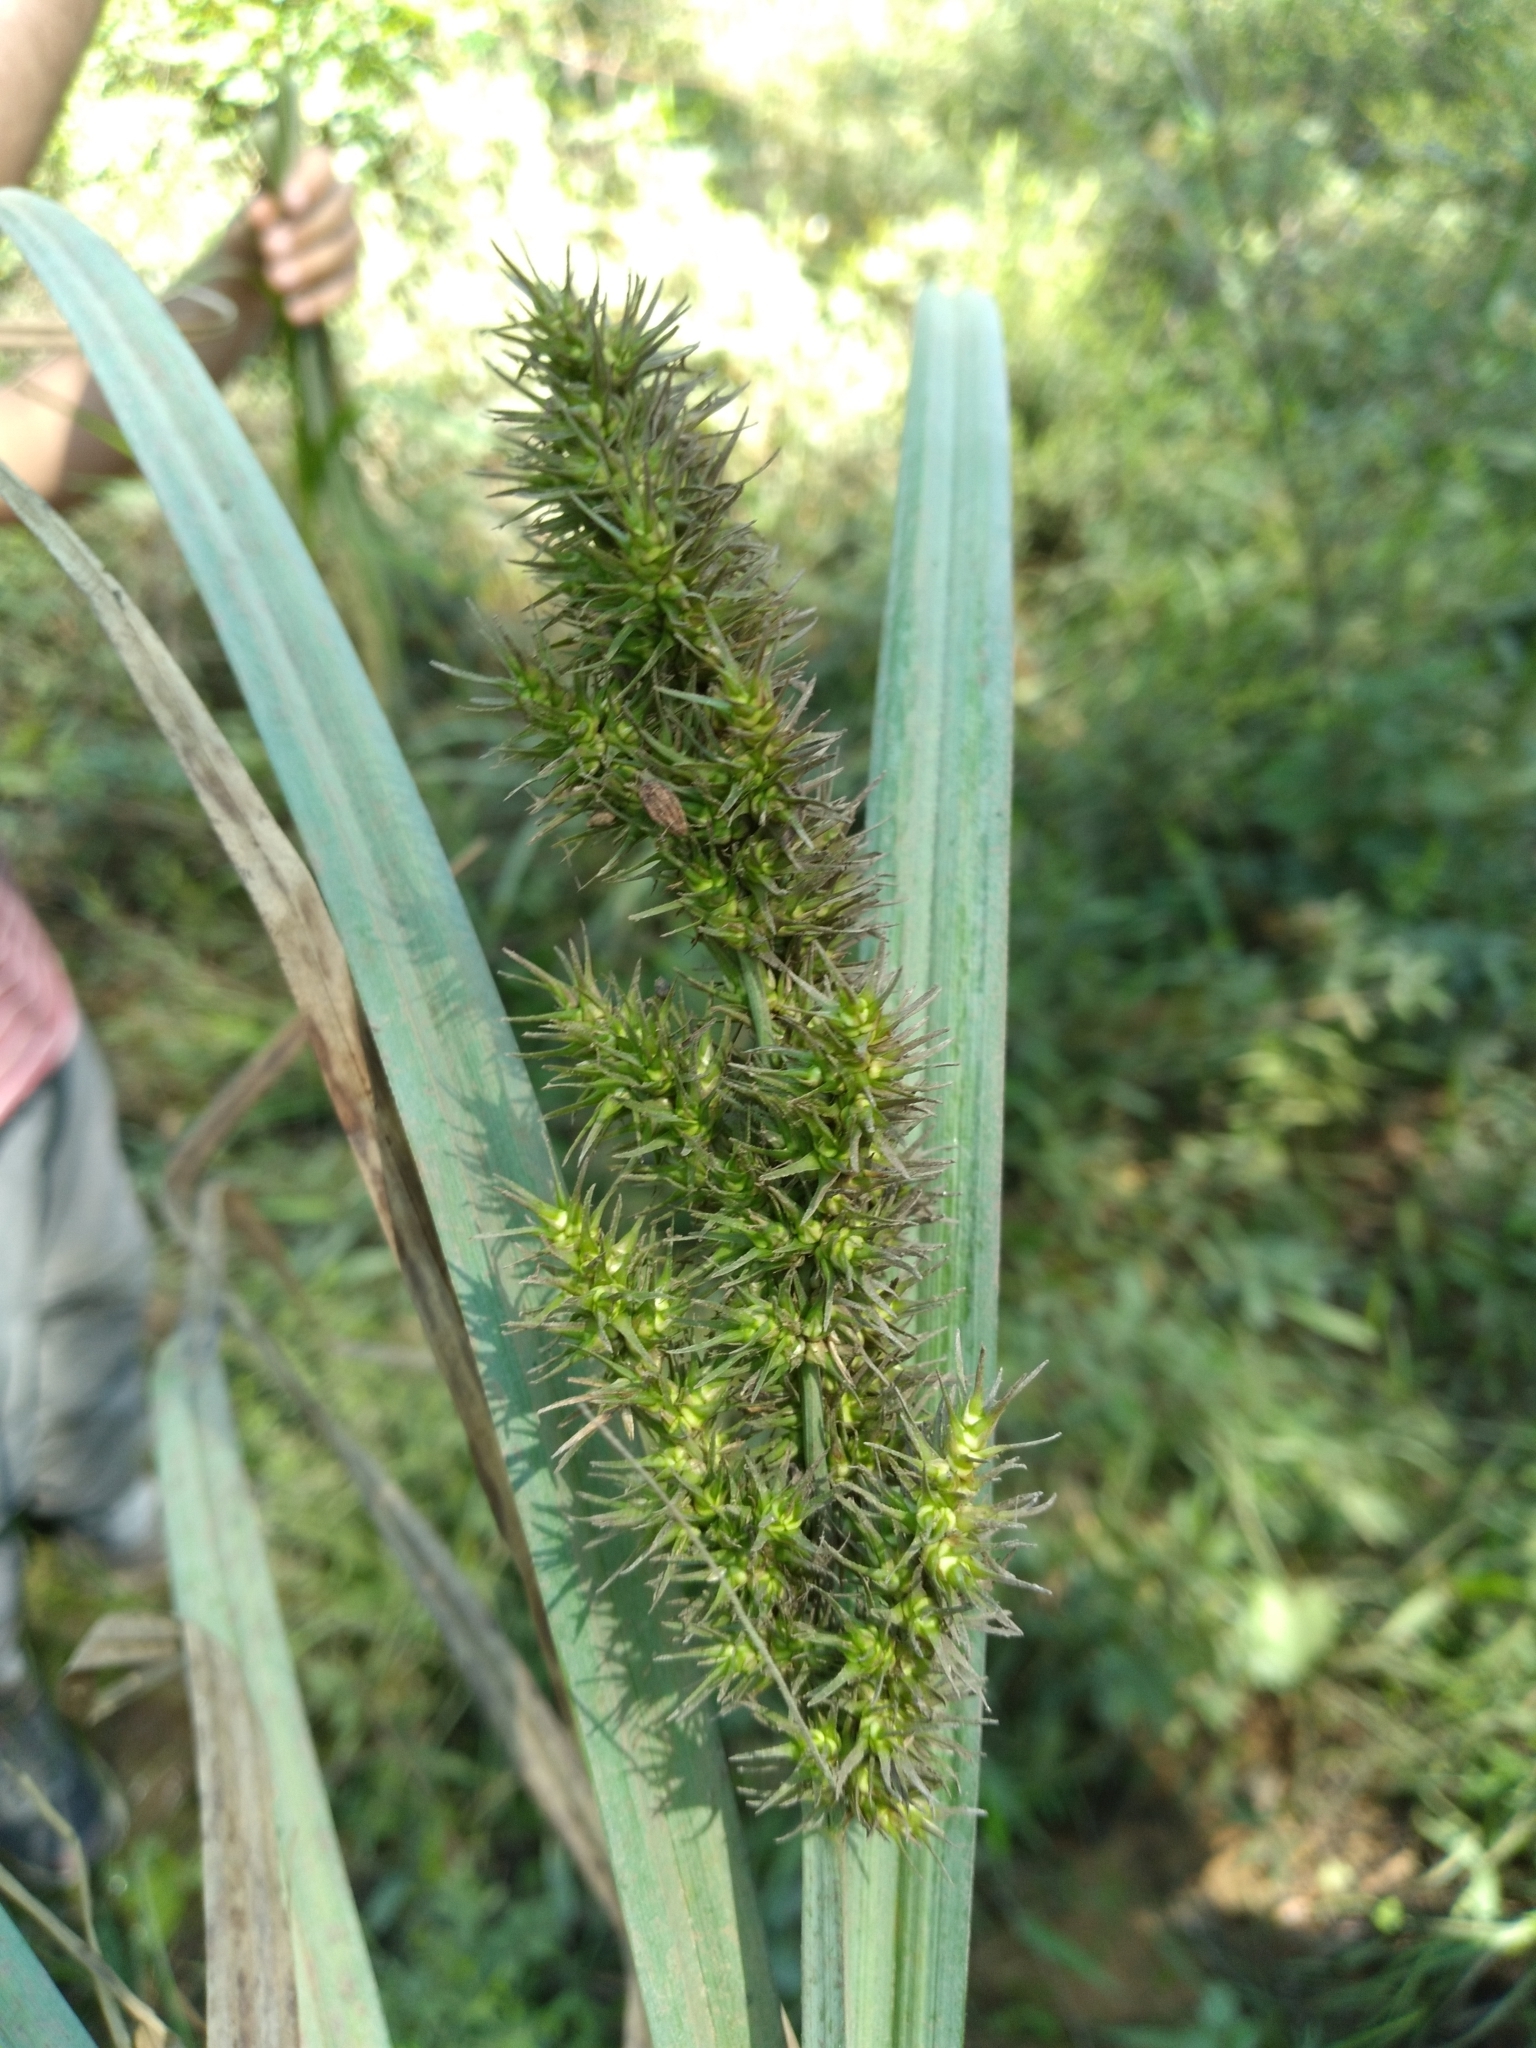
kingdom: Plantae
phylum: Tracheophyta
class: Liliopsida
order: Poales
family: Cyperaceae
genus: Carex
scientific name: Carex crus-corvi
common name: Crow-spur sedge
